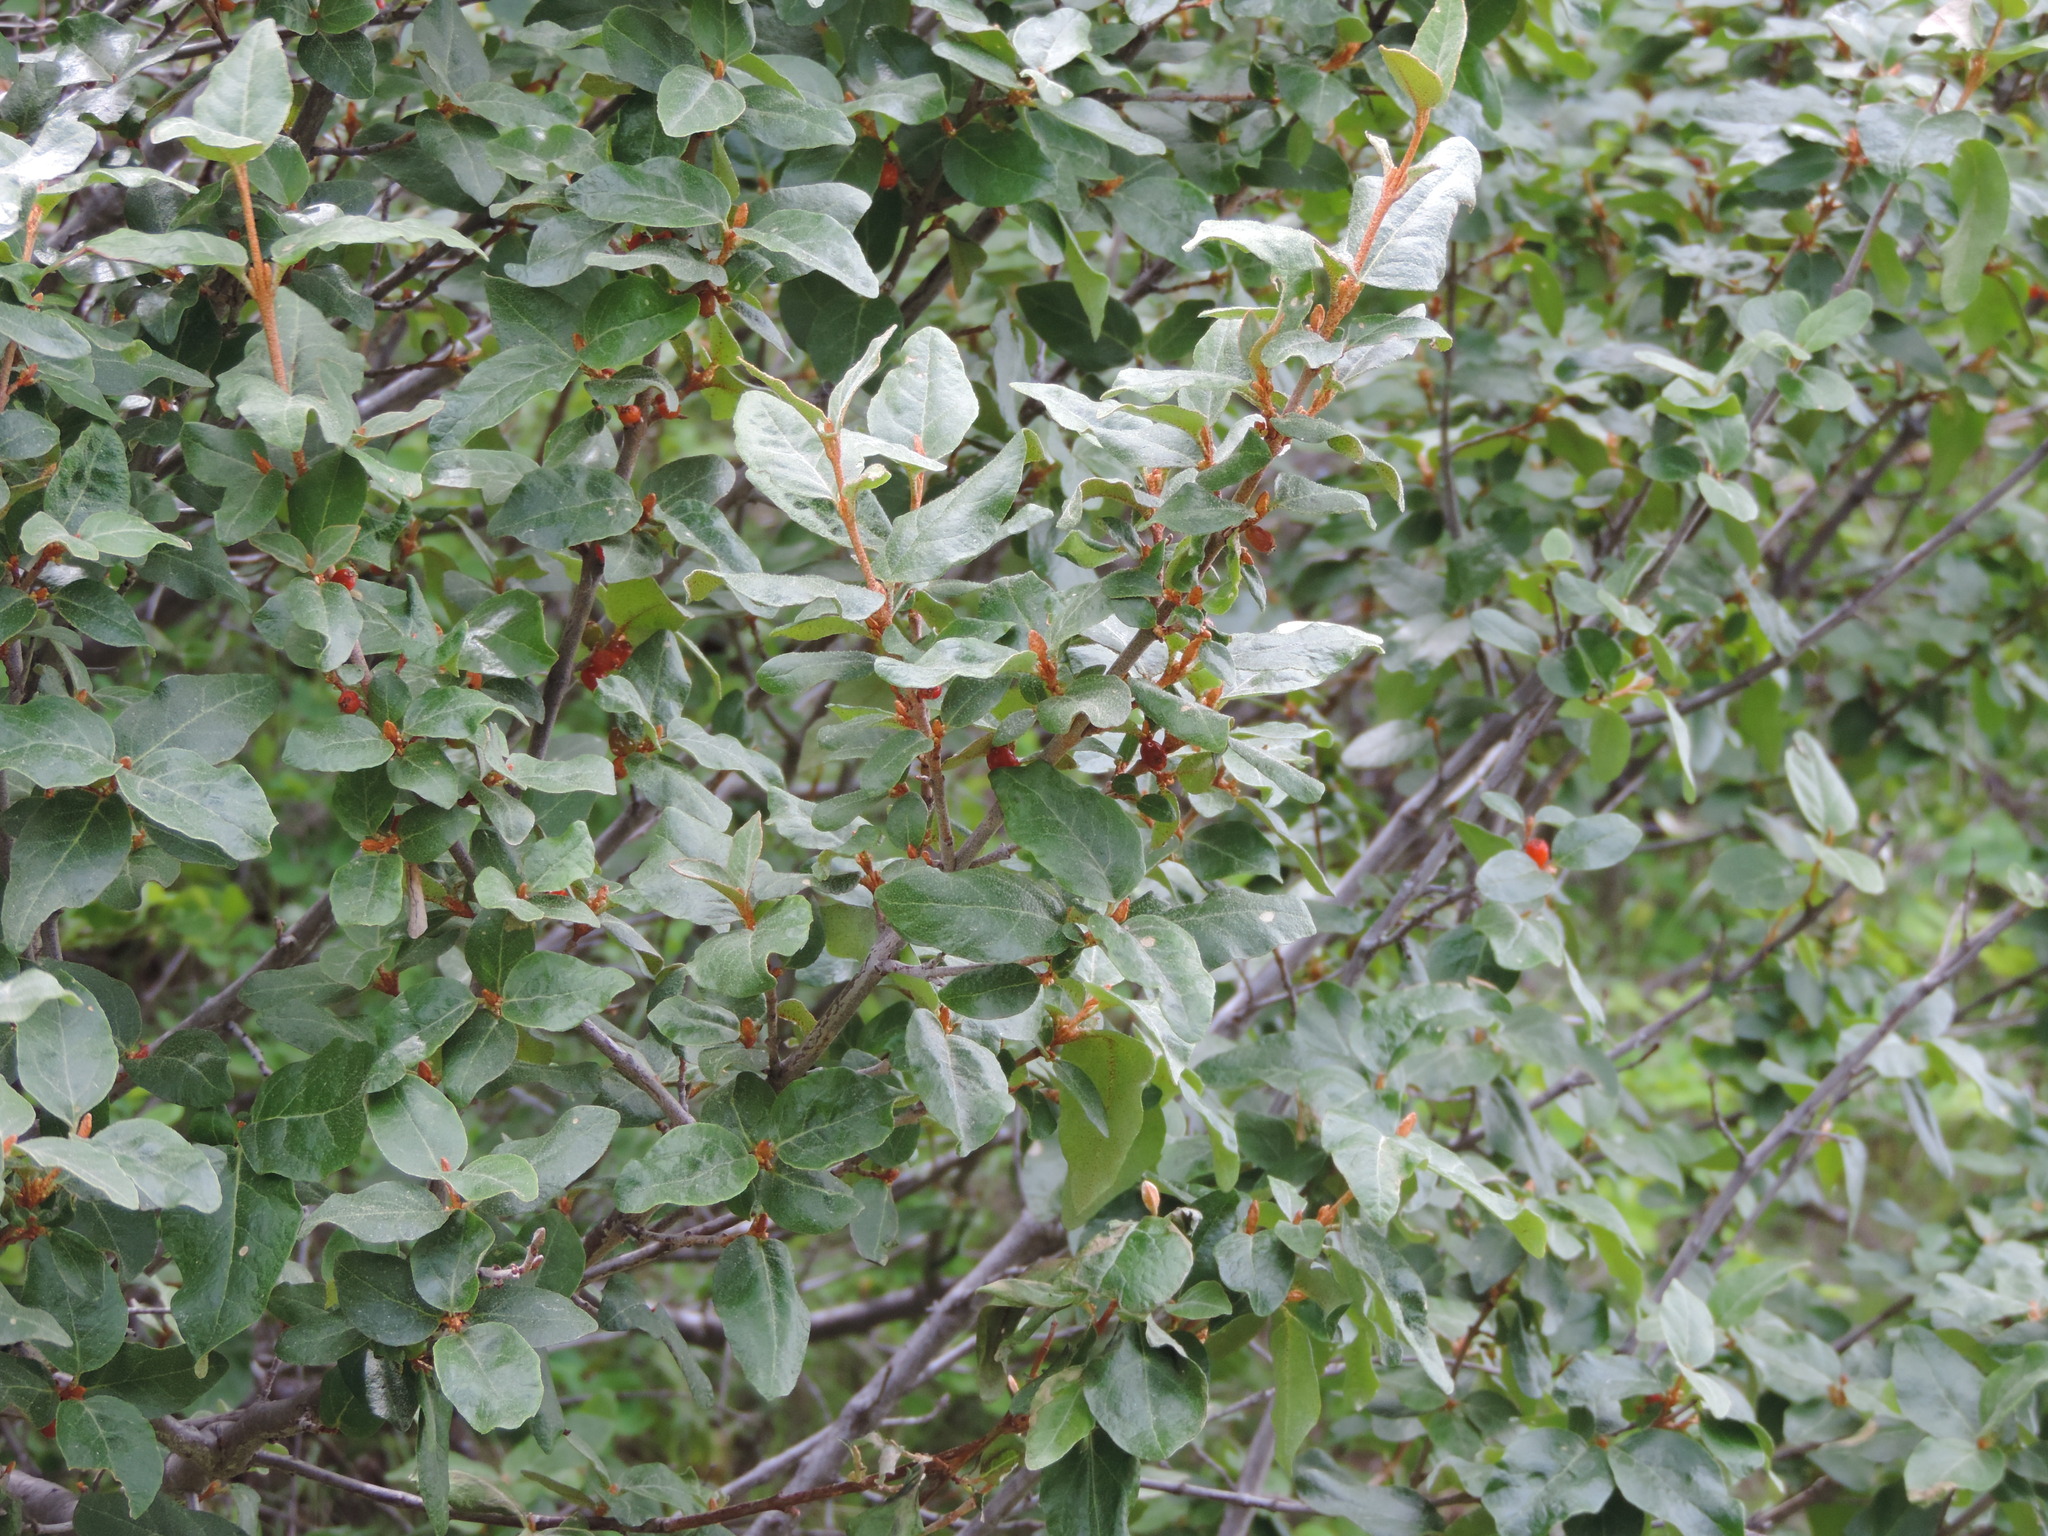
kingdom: Plantae
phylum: Tracheophyta
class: Magnoliopsida
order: Rosales
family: Elaeagnaceae
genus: Shepherdia
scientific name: Shepherdia canadensis
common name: Soapberry
